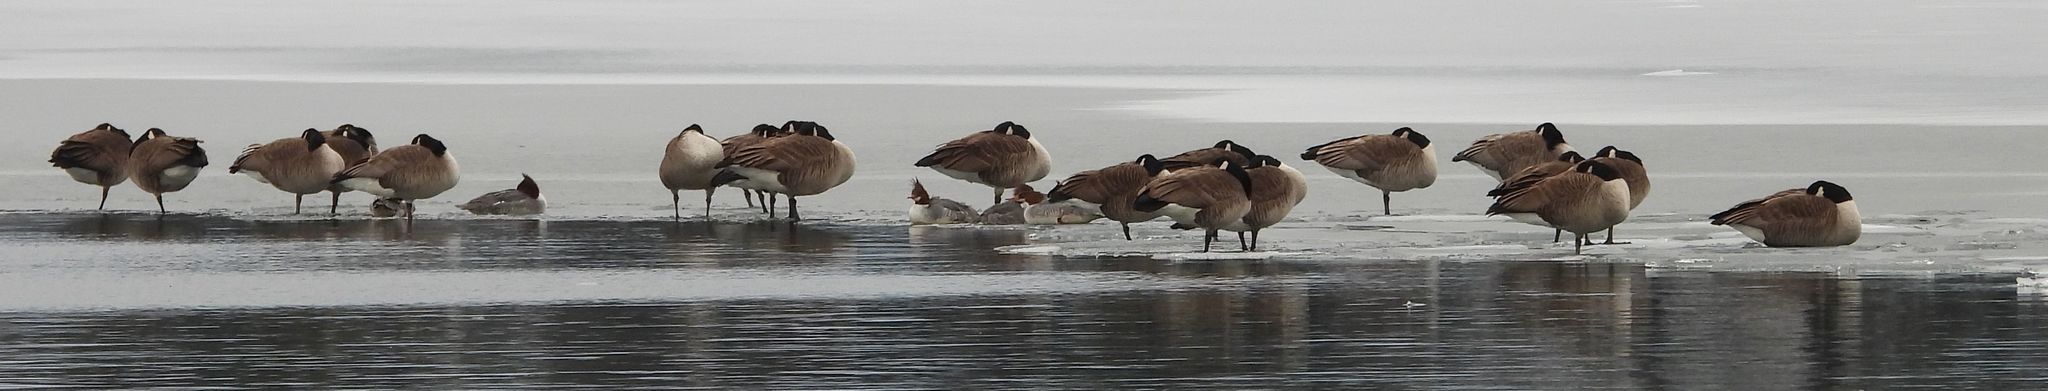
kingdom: Animalia
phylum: Chordata
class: Aves
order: Anseriformes
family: Anatidae
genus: Branta
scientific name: Branta canadensis
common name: Canada goose
